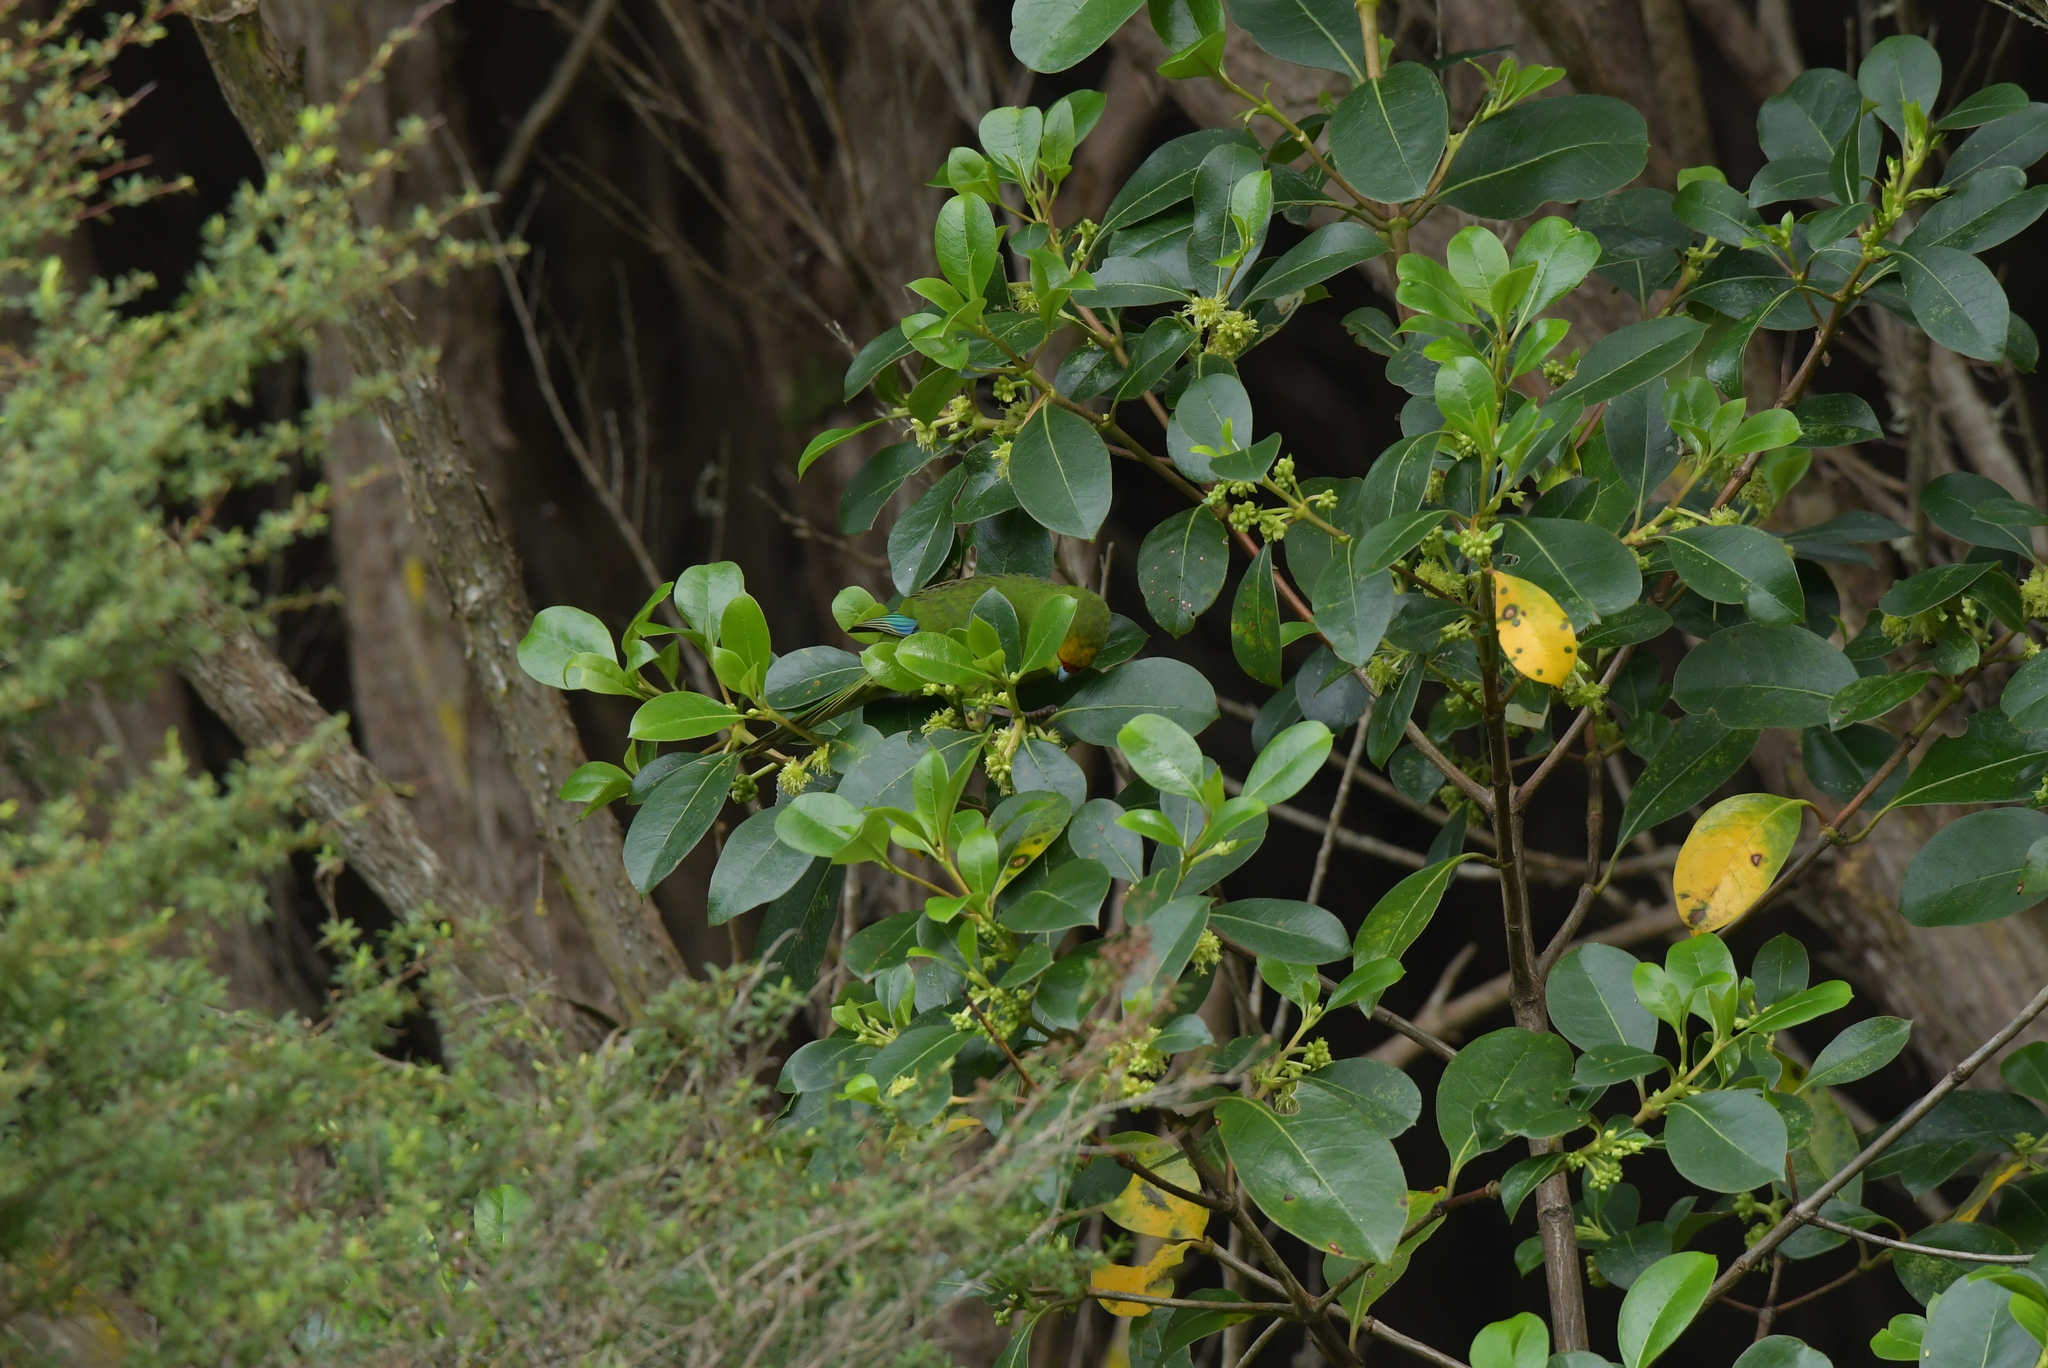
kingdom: Animalia
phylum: Chordata
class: Aves
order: Psittaciformes
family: Psittacidae
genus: Cyanoramphus
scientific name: Cyanoramphus auriceps
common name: Yellow-crowned parakeet
